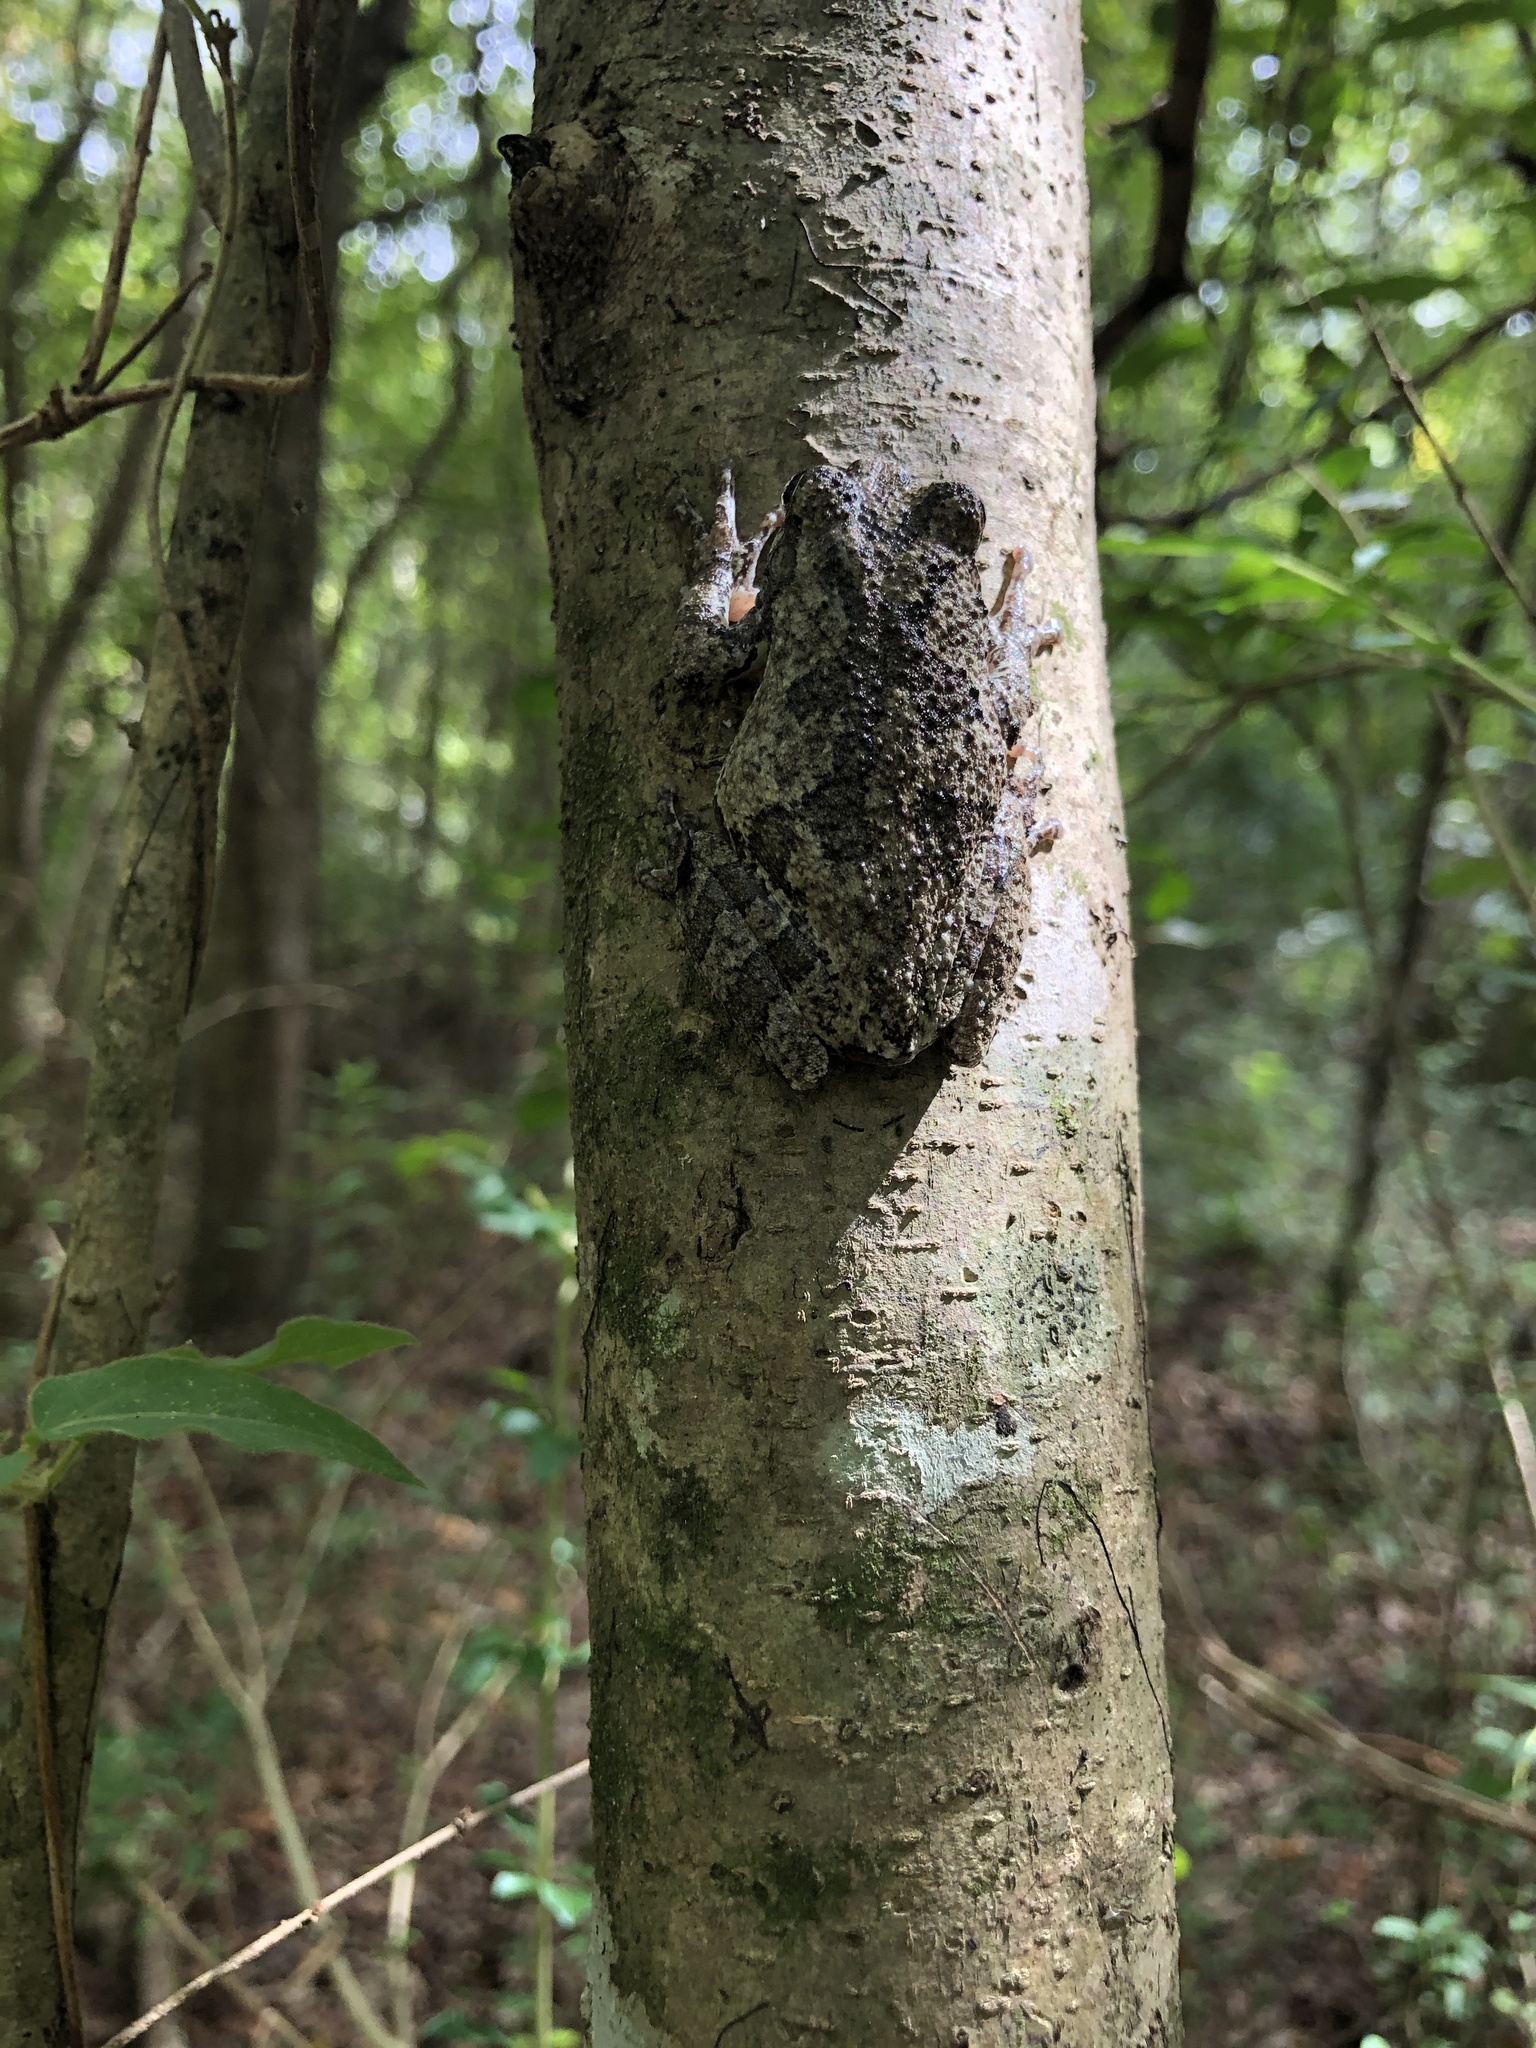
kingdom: Animalia
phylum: Chordata
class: Amphibia
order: Anura
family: Hylidae
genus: Dryophytes
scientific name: Dryophytes chrysoscelis
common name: Cope's gray treefrog
